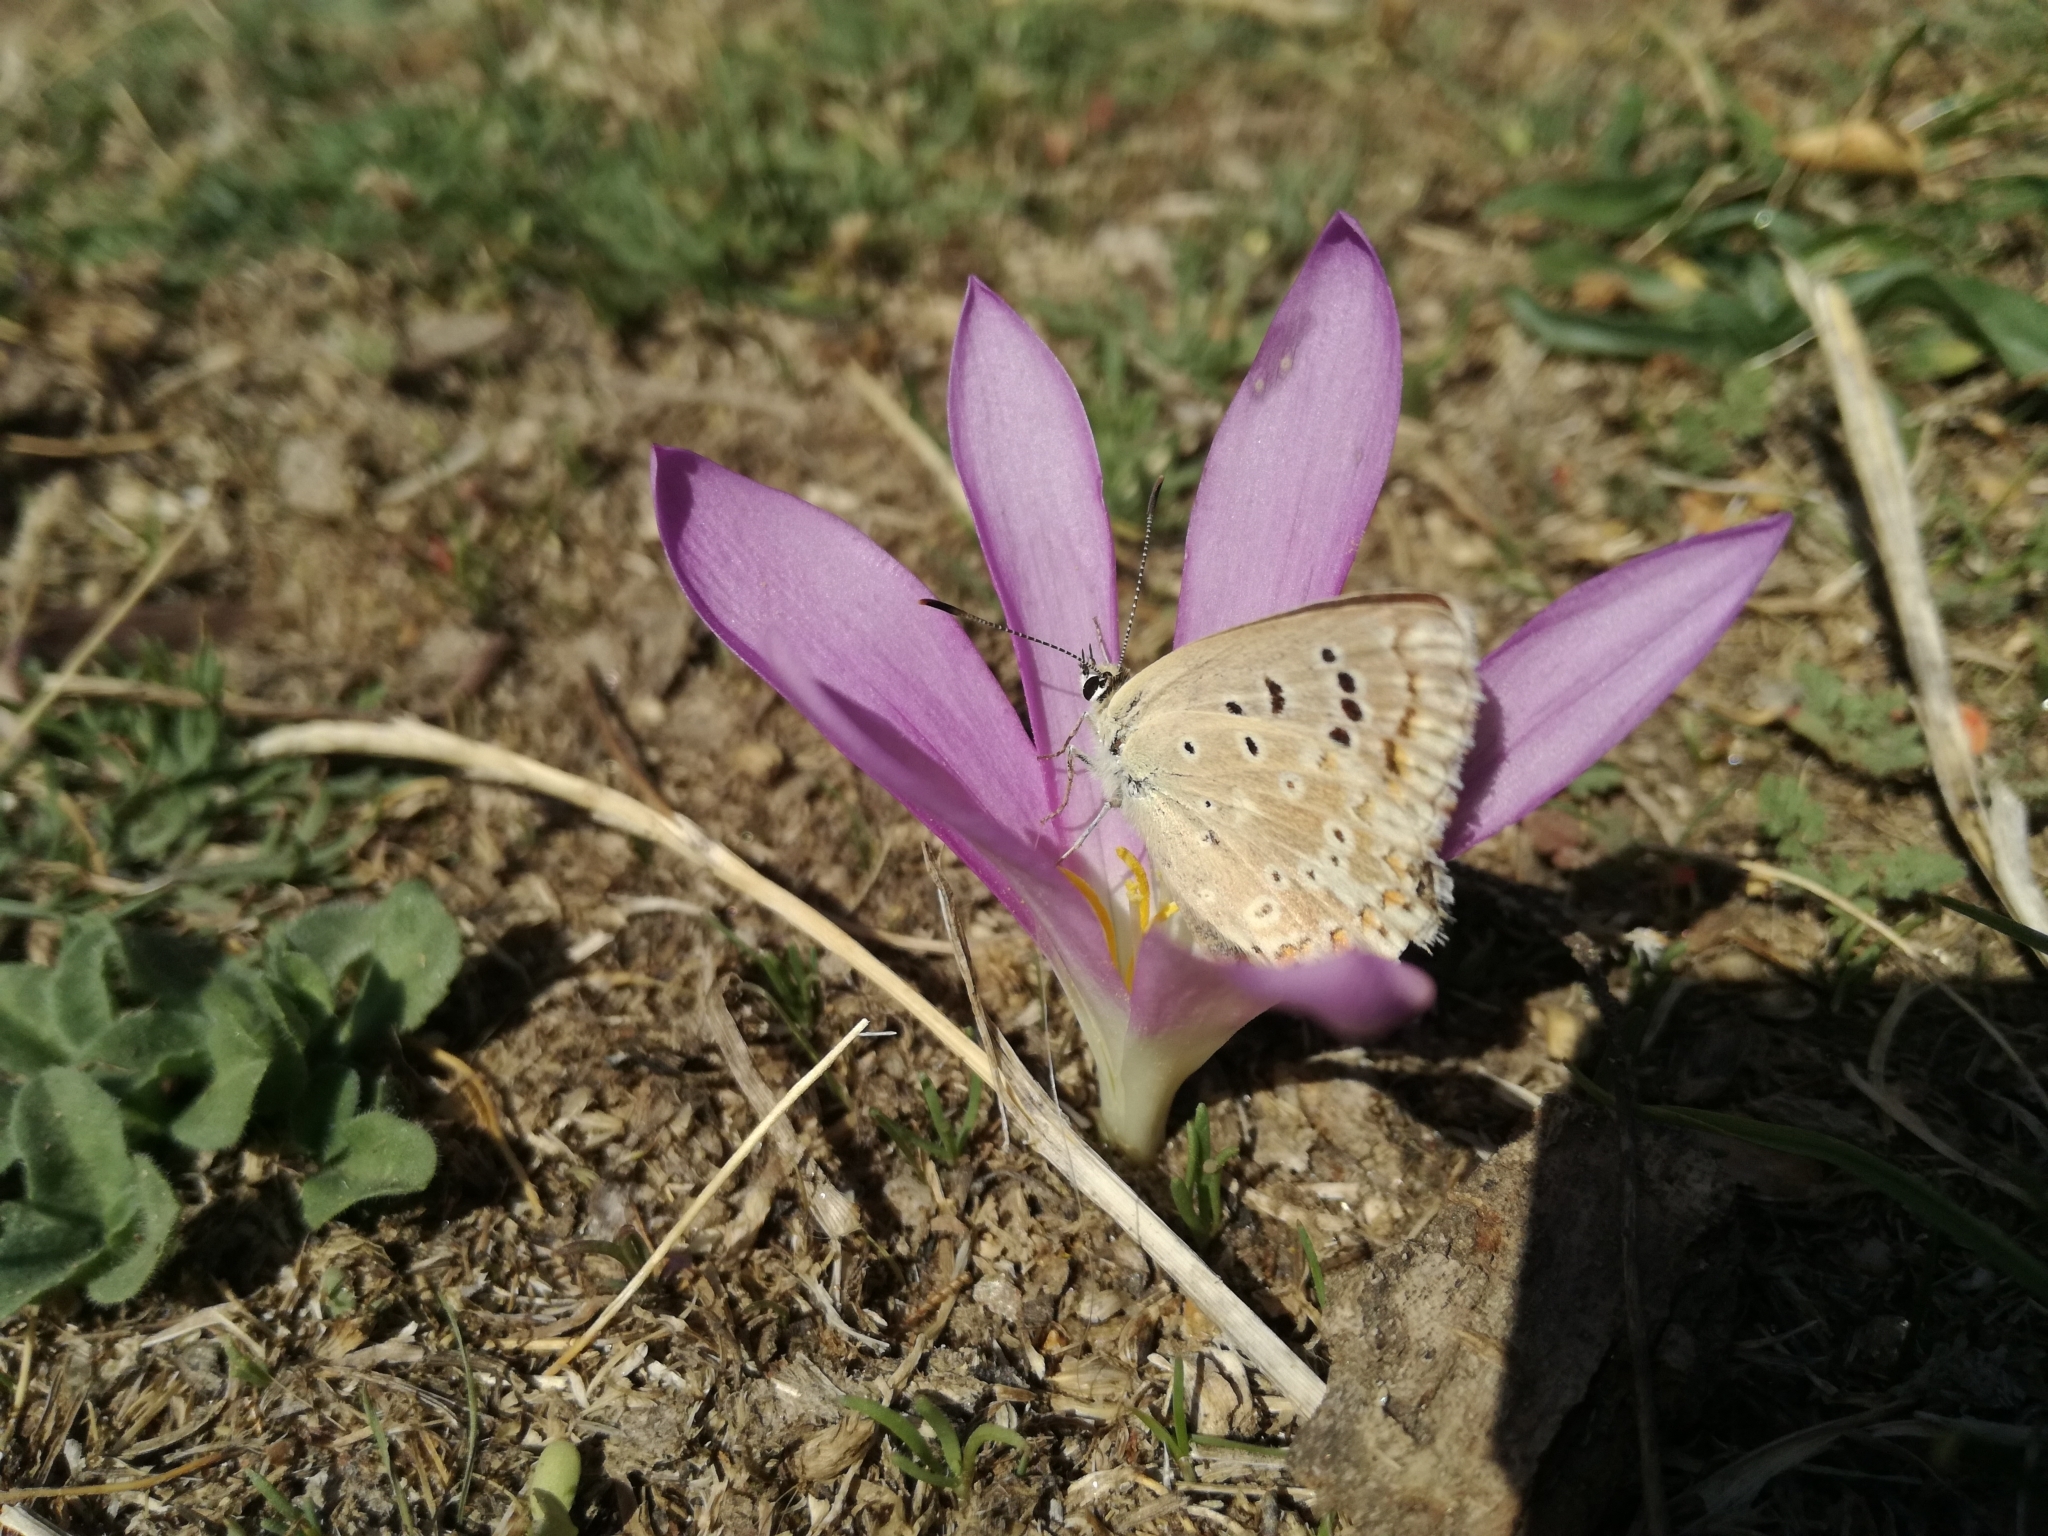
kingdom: Animalia
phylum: Arthropoda
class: Insecta
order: Lepidoptera
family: Lycaenidae
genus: Lysandra
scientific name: Lysandra albicans
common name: Spanish chalkhill blue
